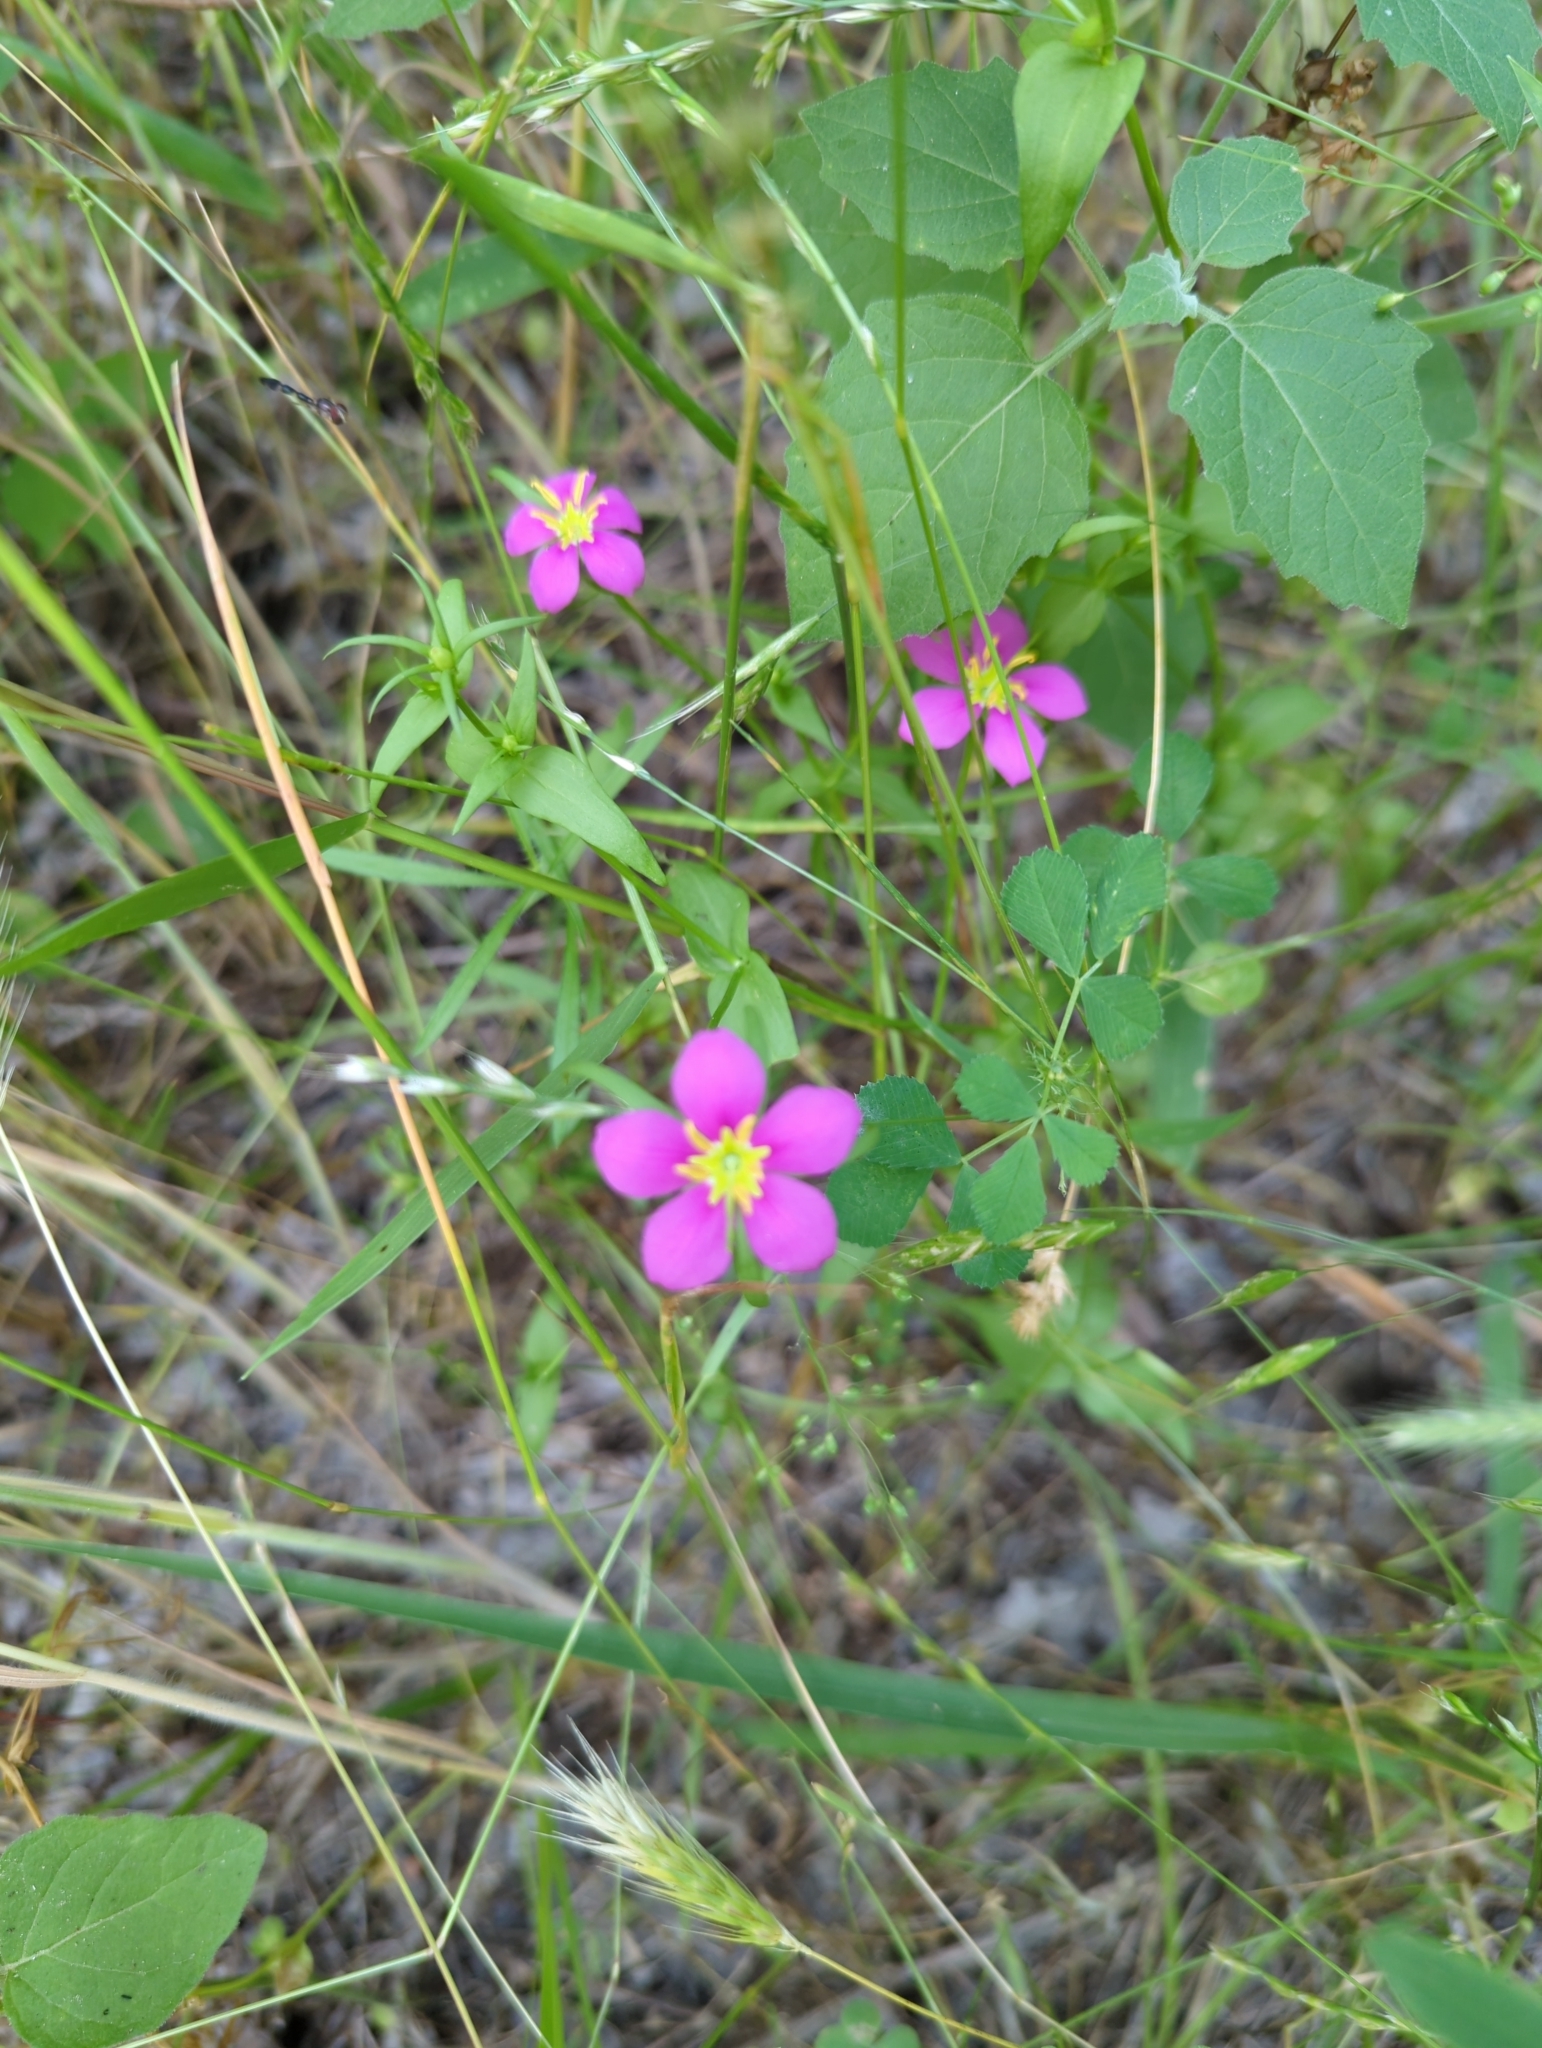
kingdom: Plantae
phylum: Tracheophyta
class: Magnoliopsida
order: Gentianales
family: Gentianaceae
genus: Sabatia
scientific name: Sabatia campestris
